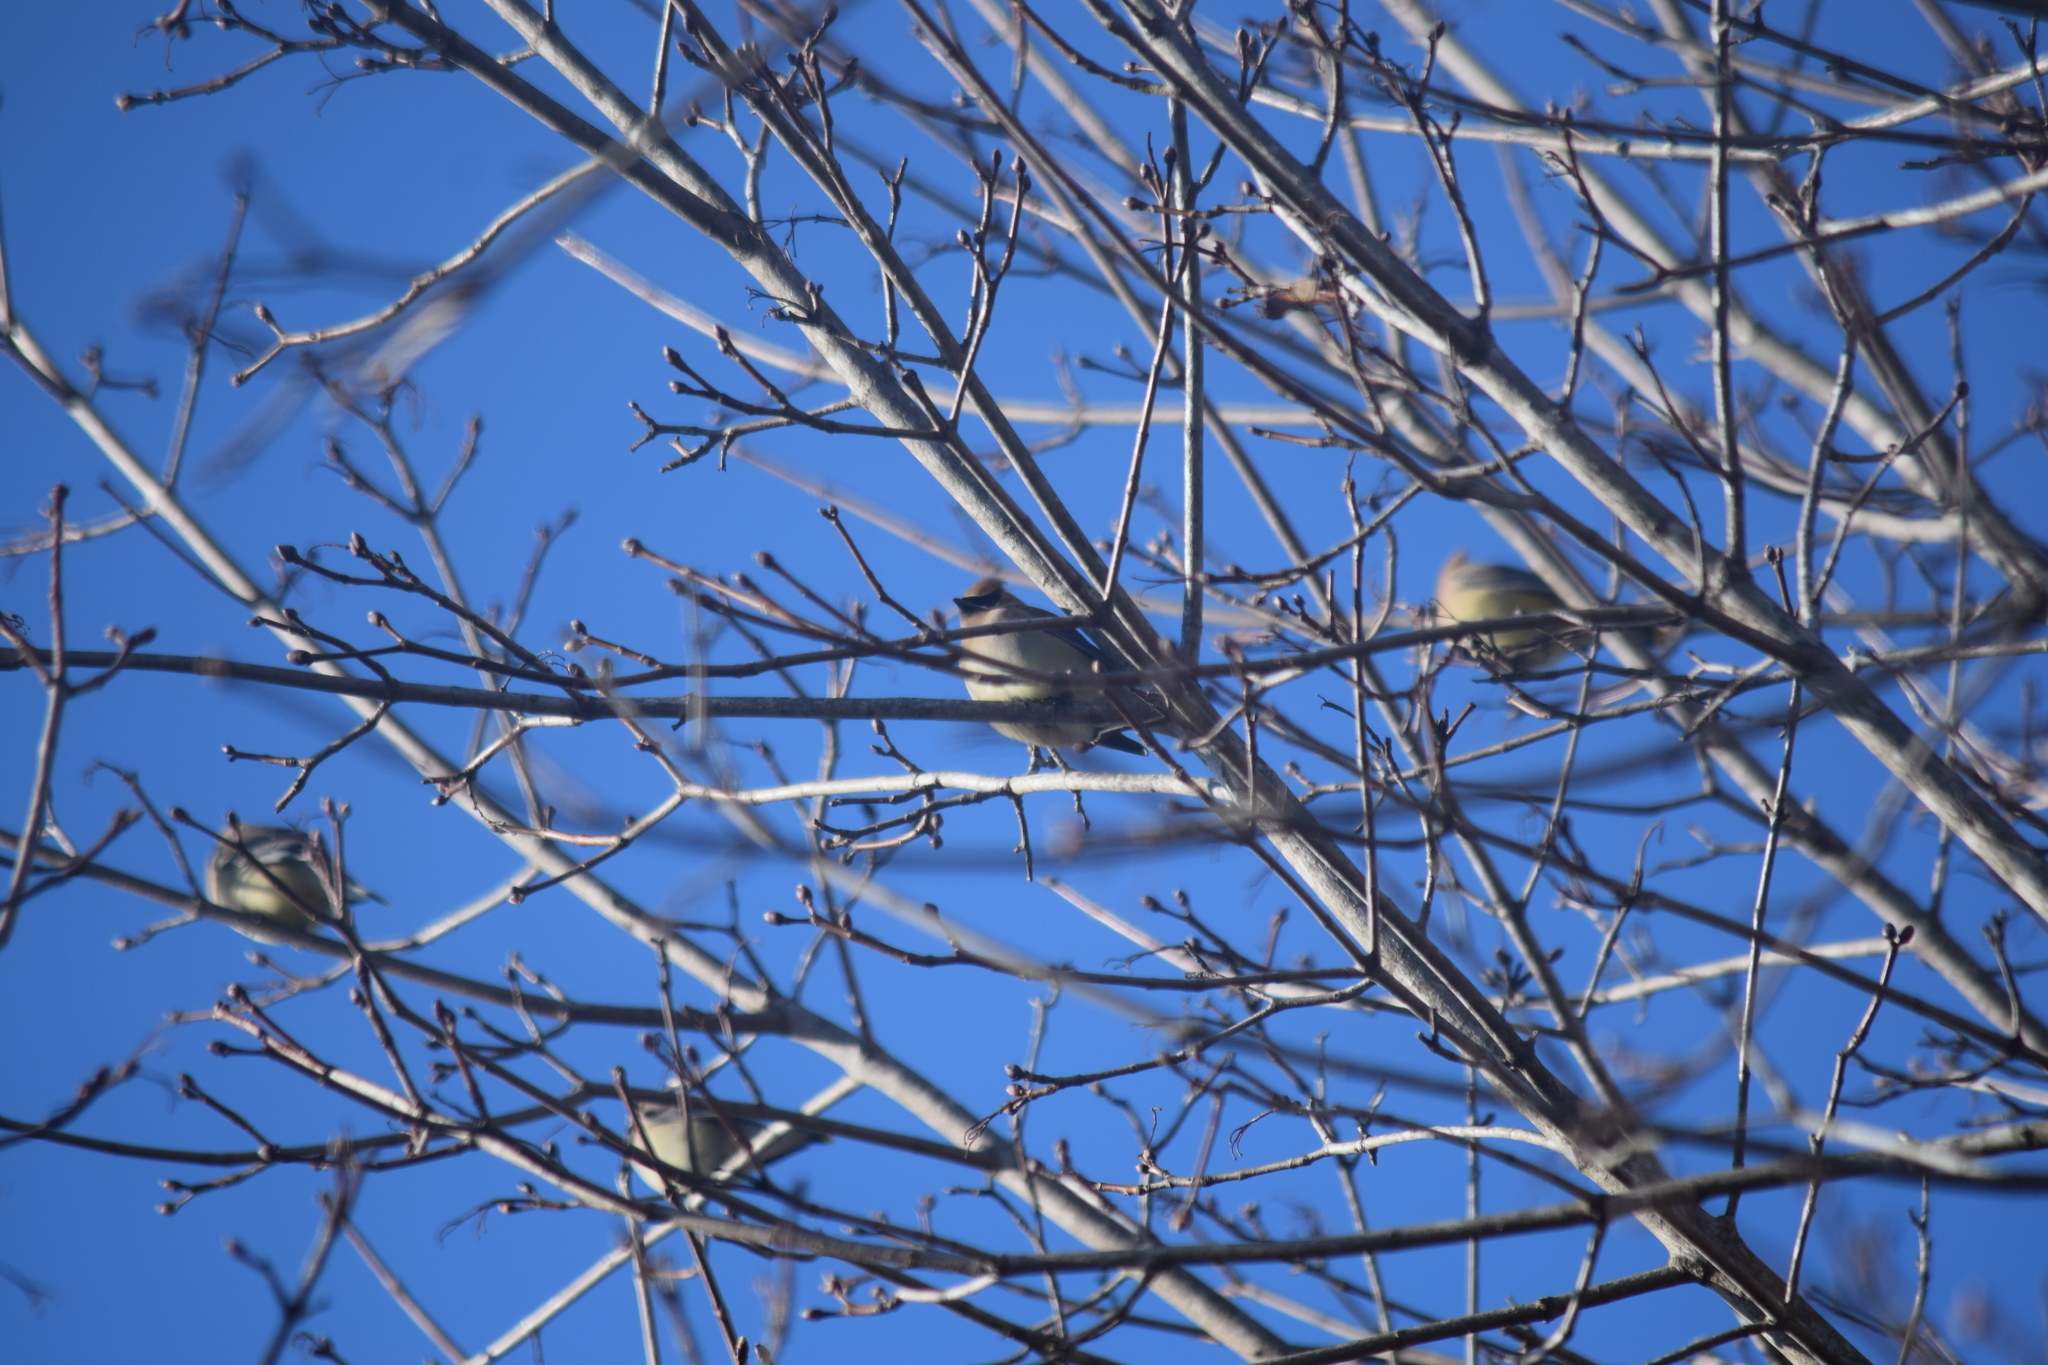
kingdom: Animalia
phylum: Chordata
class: Aves
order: Passeriformes
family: Bombycillidae
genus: Bombycilla
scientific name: Bombycilla cedrorum
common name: Cedar waxwing
